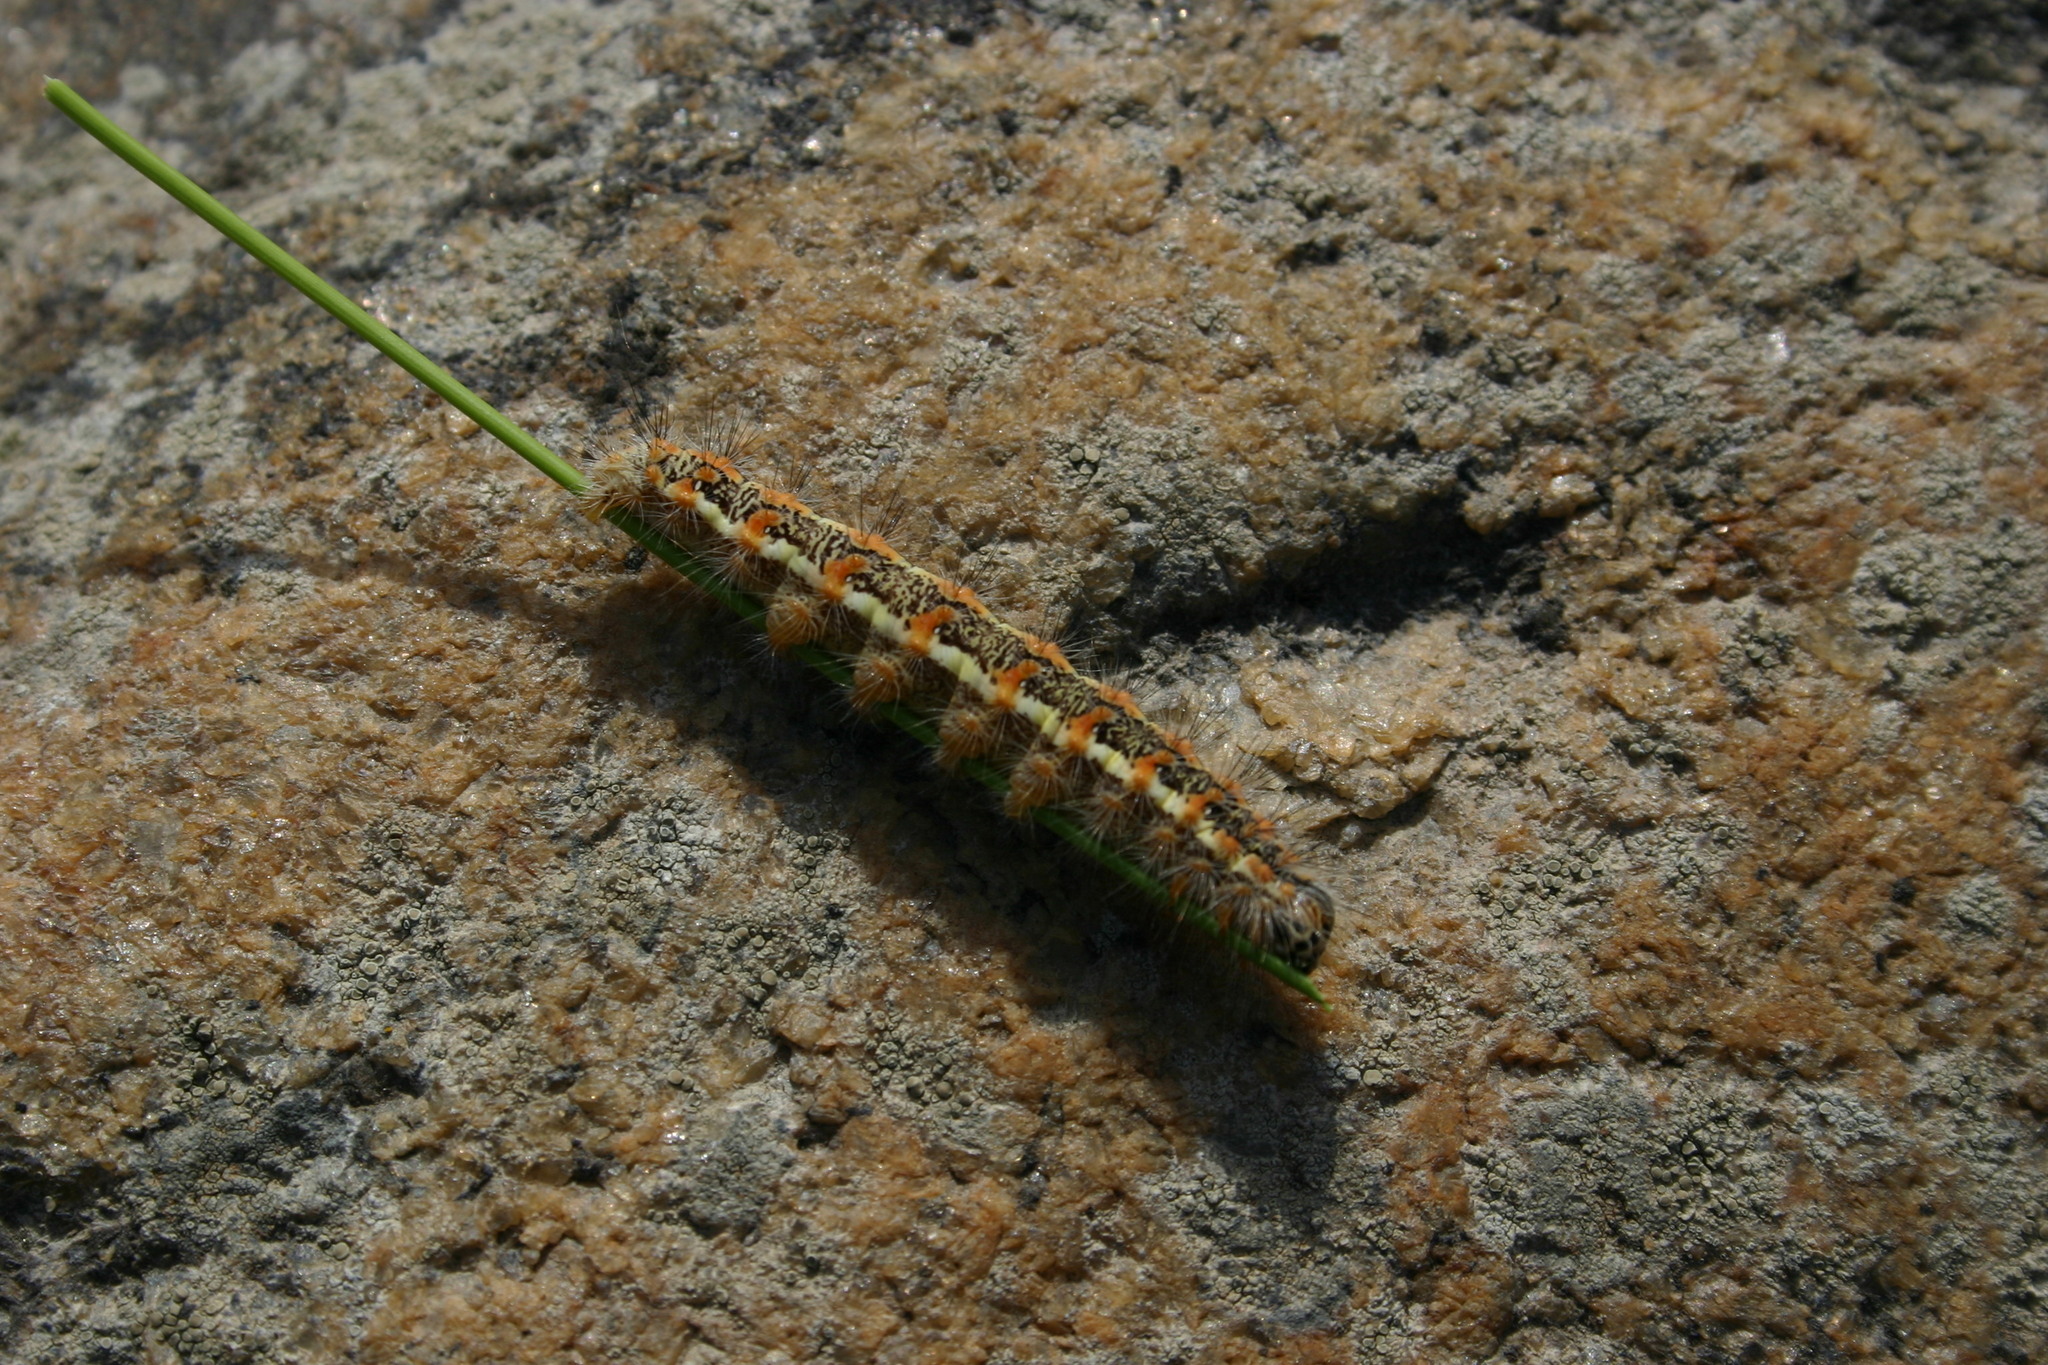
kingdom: Animalia
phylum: Arthropoda
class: Insecta
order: Lepidoptera
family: Noctuidae
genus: Simyra
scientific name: Simyra albovenosa
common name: Reed dagger
